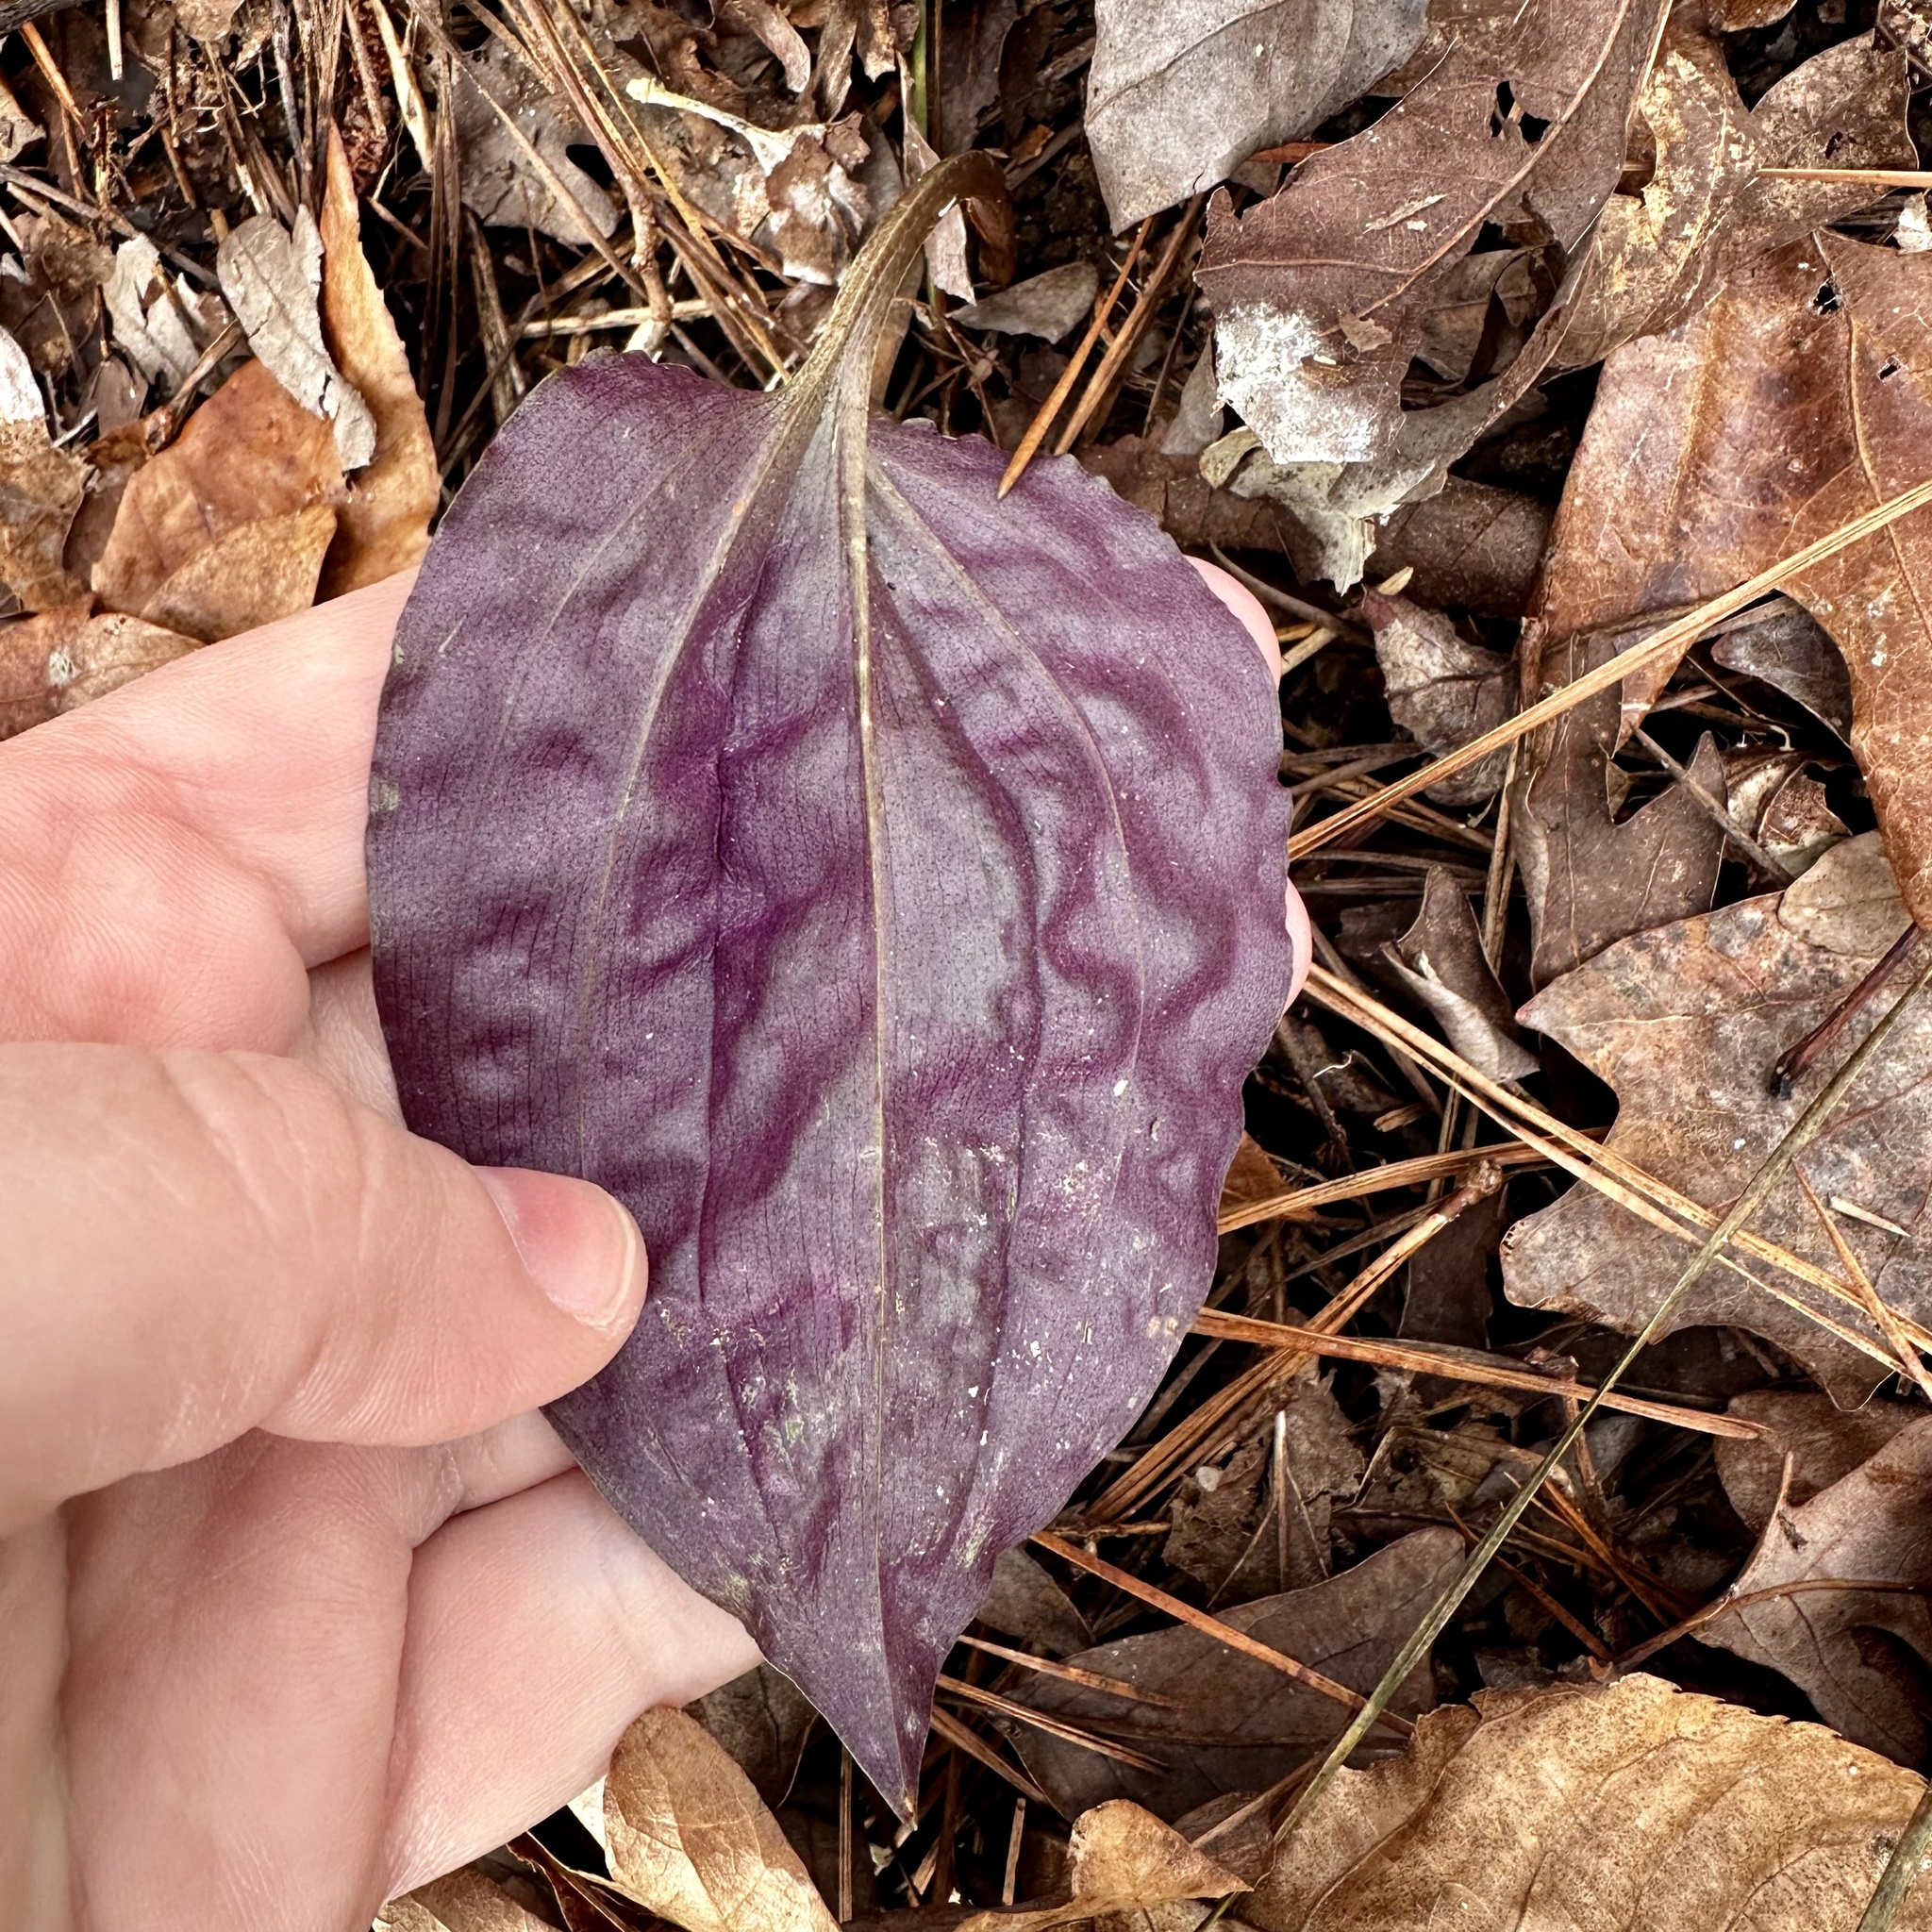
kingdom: Plantae
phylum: Tracheophyta
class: Liliopsida
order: Asparagales
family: Orchidaceae
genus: Tipularia
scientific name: Tipularia discolor
